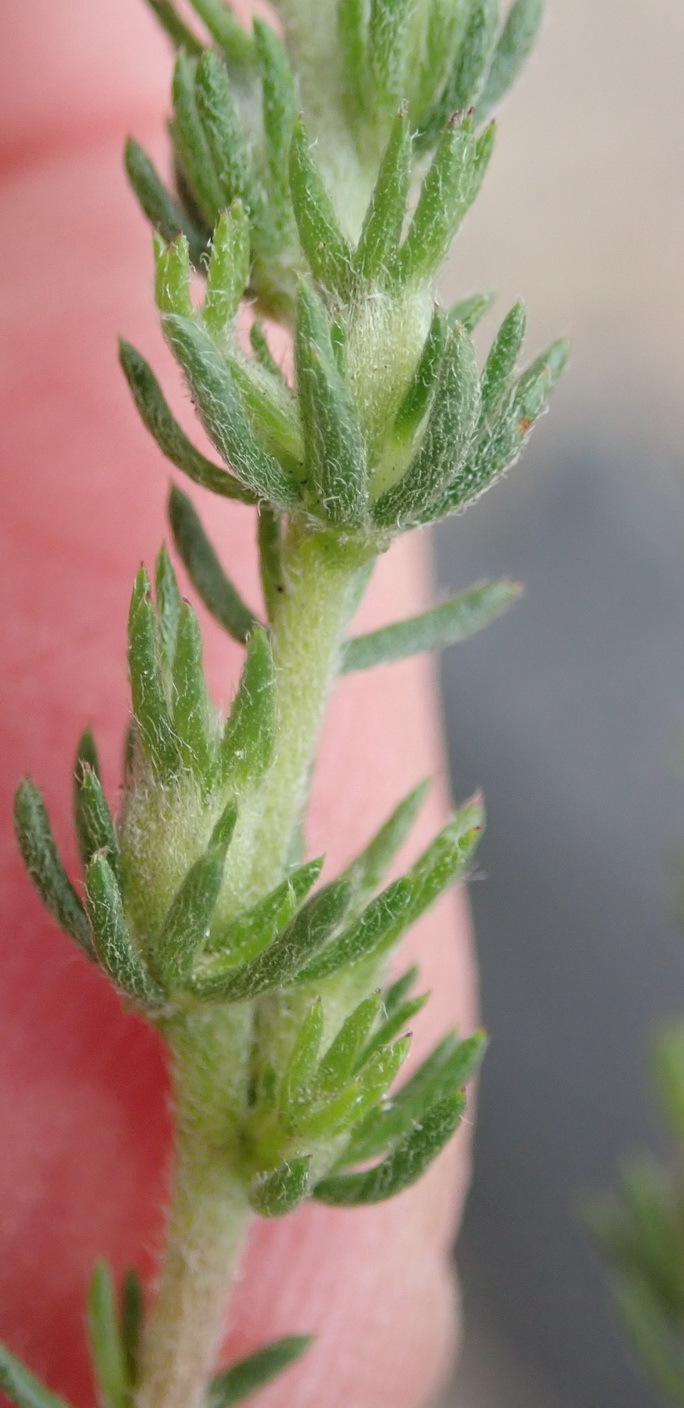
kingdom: Plantae
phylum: Tracheophyta
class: Magnoliopsida
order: Fabales
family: Fabaceae
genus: Aspalathus
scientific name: Aspalathus opaca
